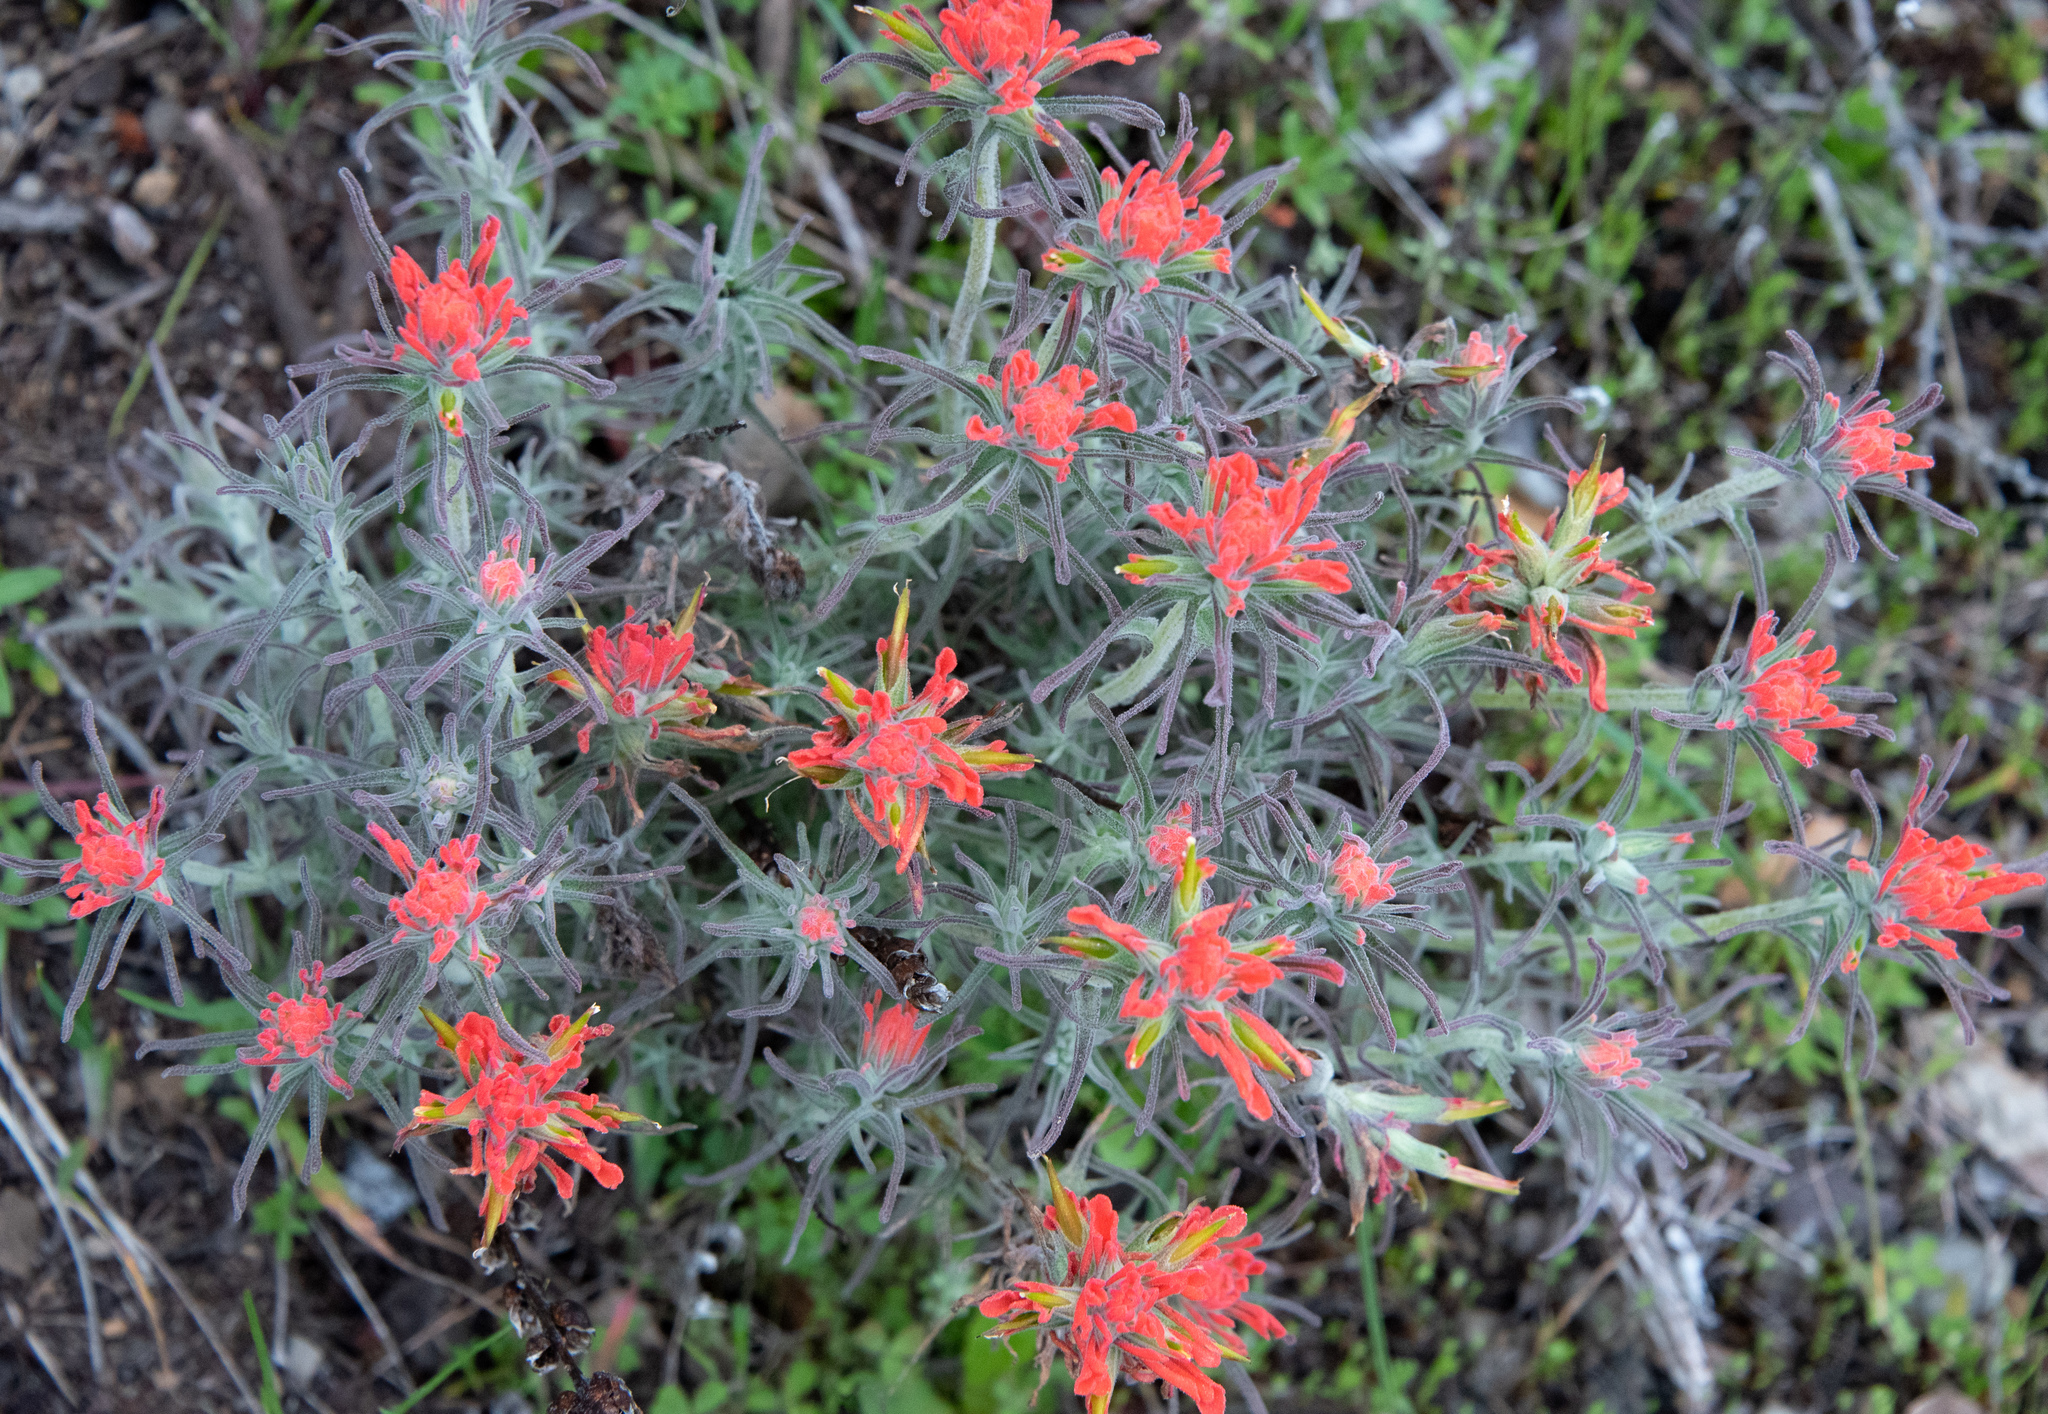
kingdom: Plantae
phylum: Tracheophyta
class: Magnoliopsida
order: Lamiales
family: Orobanchaceae
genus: Castilleja
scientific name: Castilleja foliolosa
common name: Woolly indian paintbrush
